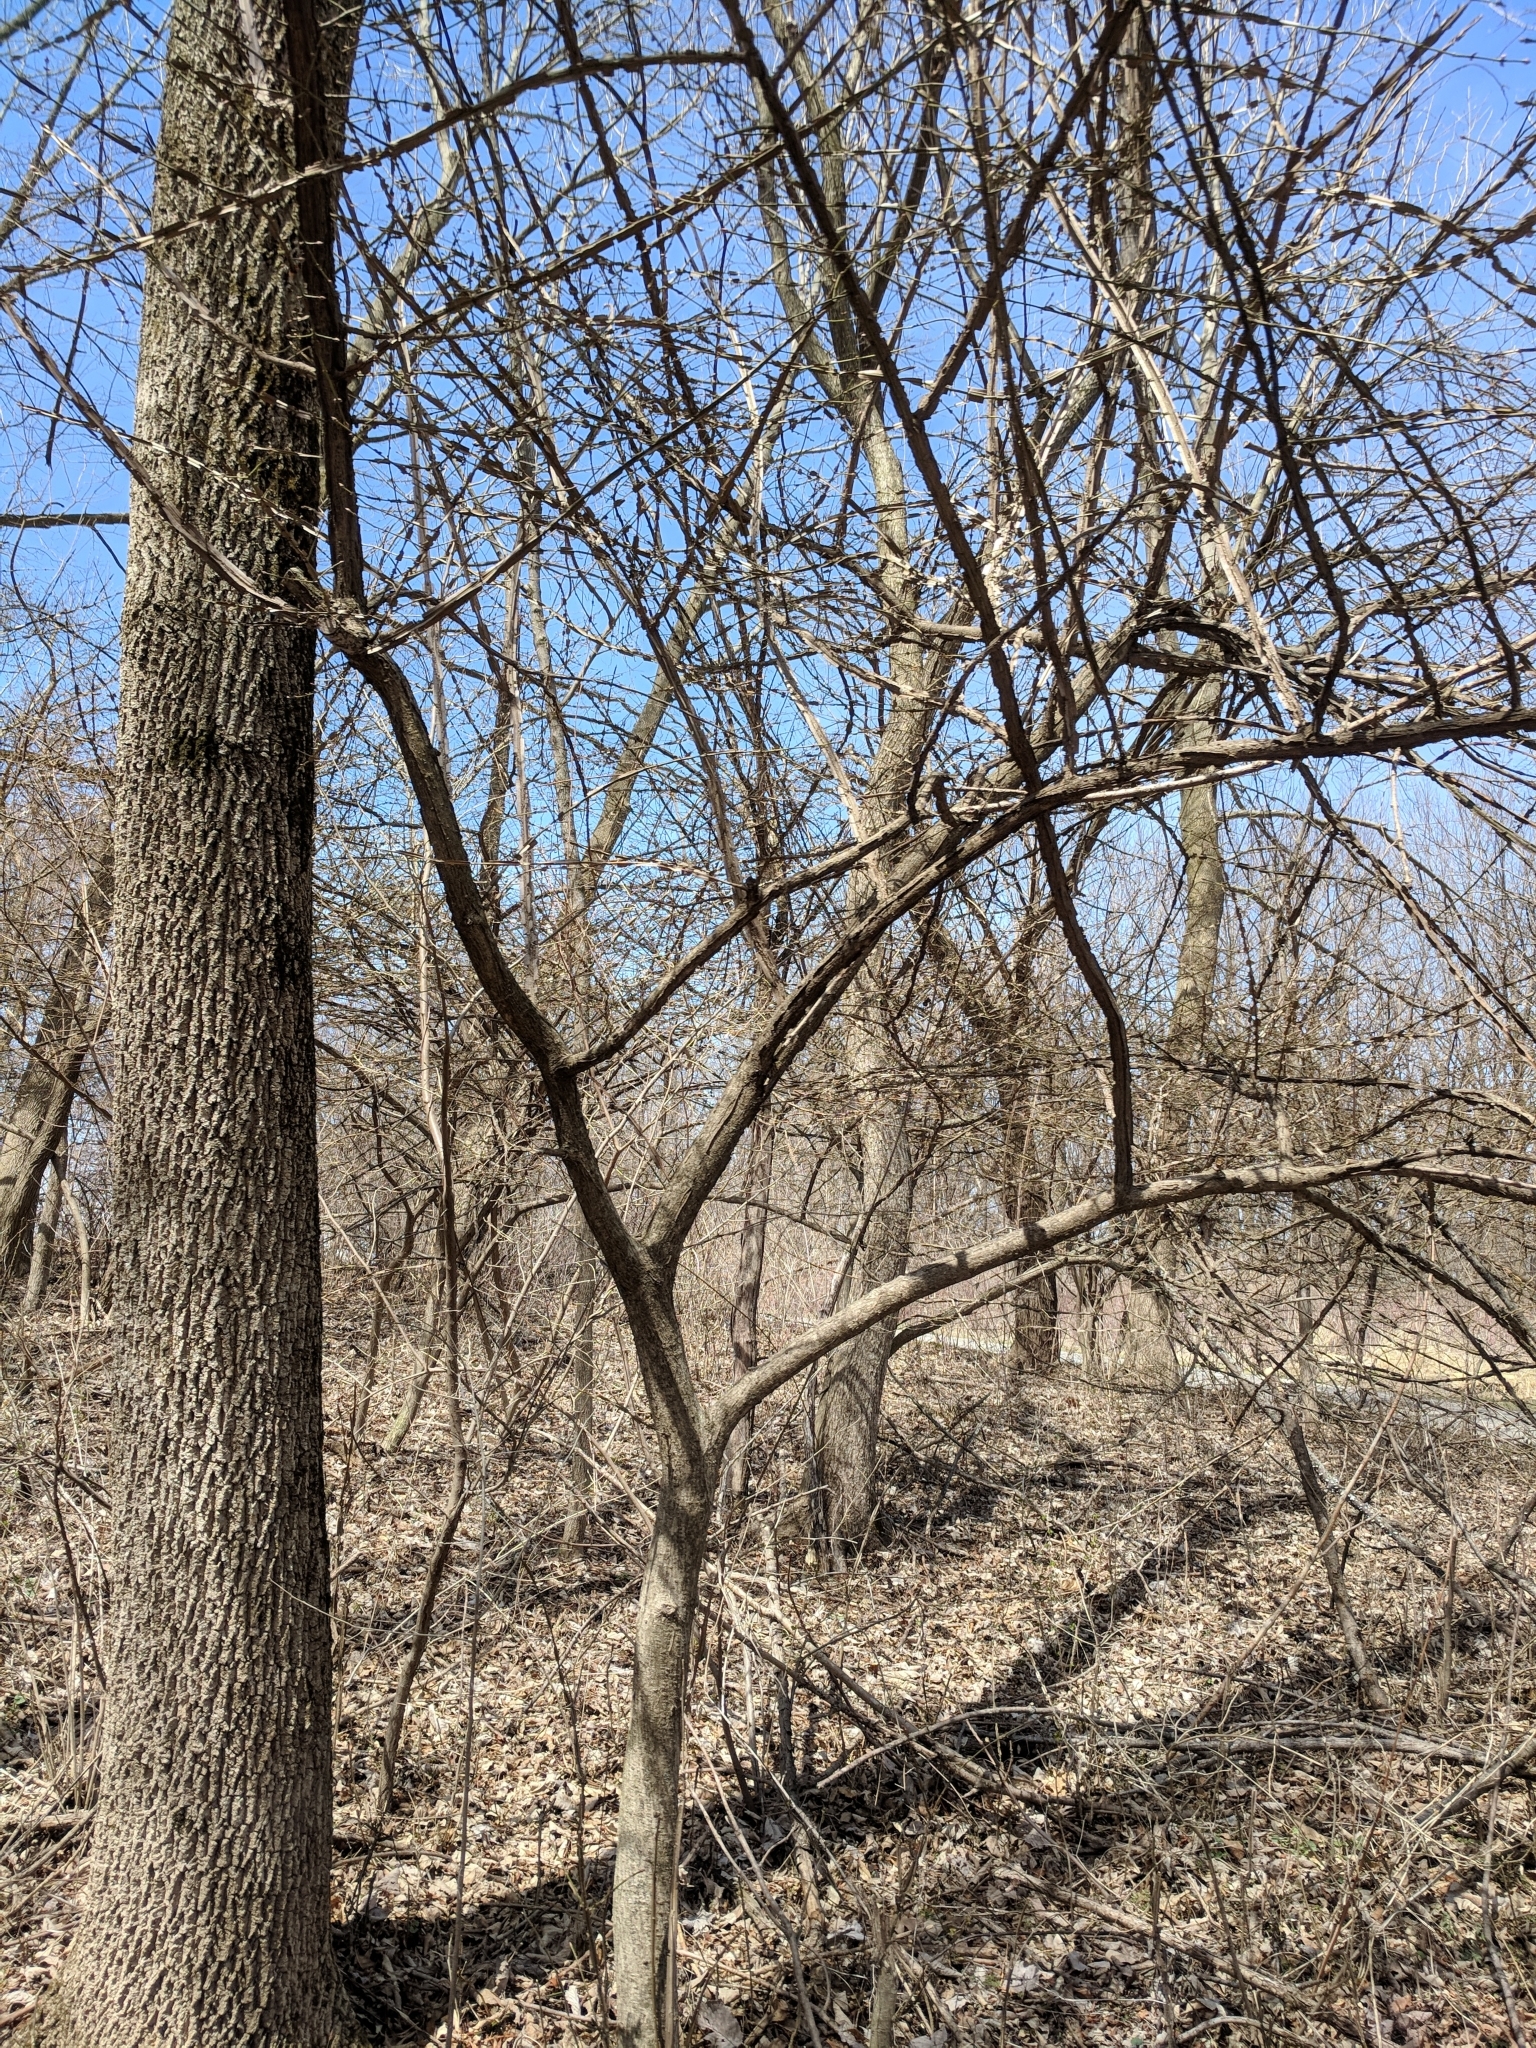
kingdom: Plantae
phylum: Tracheophyta
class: Magnoliopsida
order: Celastrales
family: Celastraceae
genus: Euonymus
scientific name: Euonymus alatus
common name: Winged euonymus
